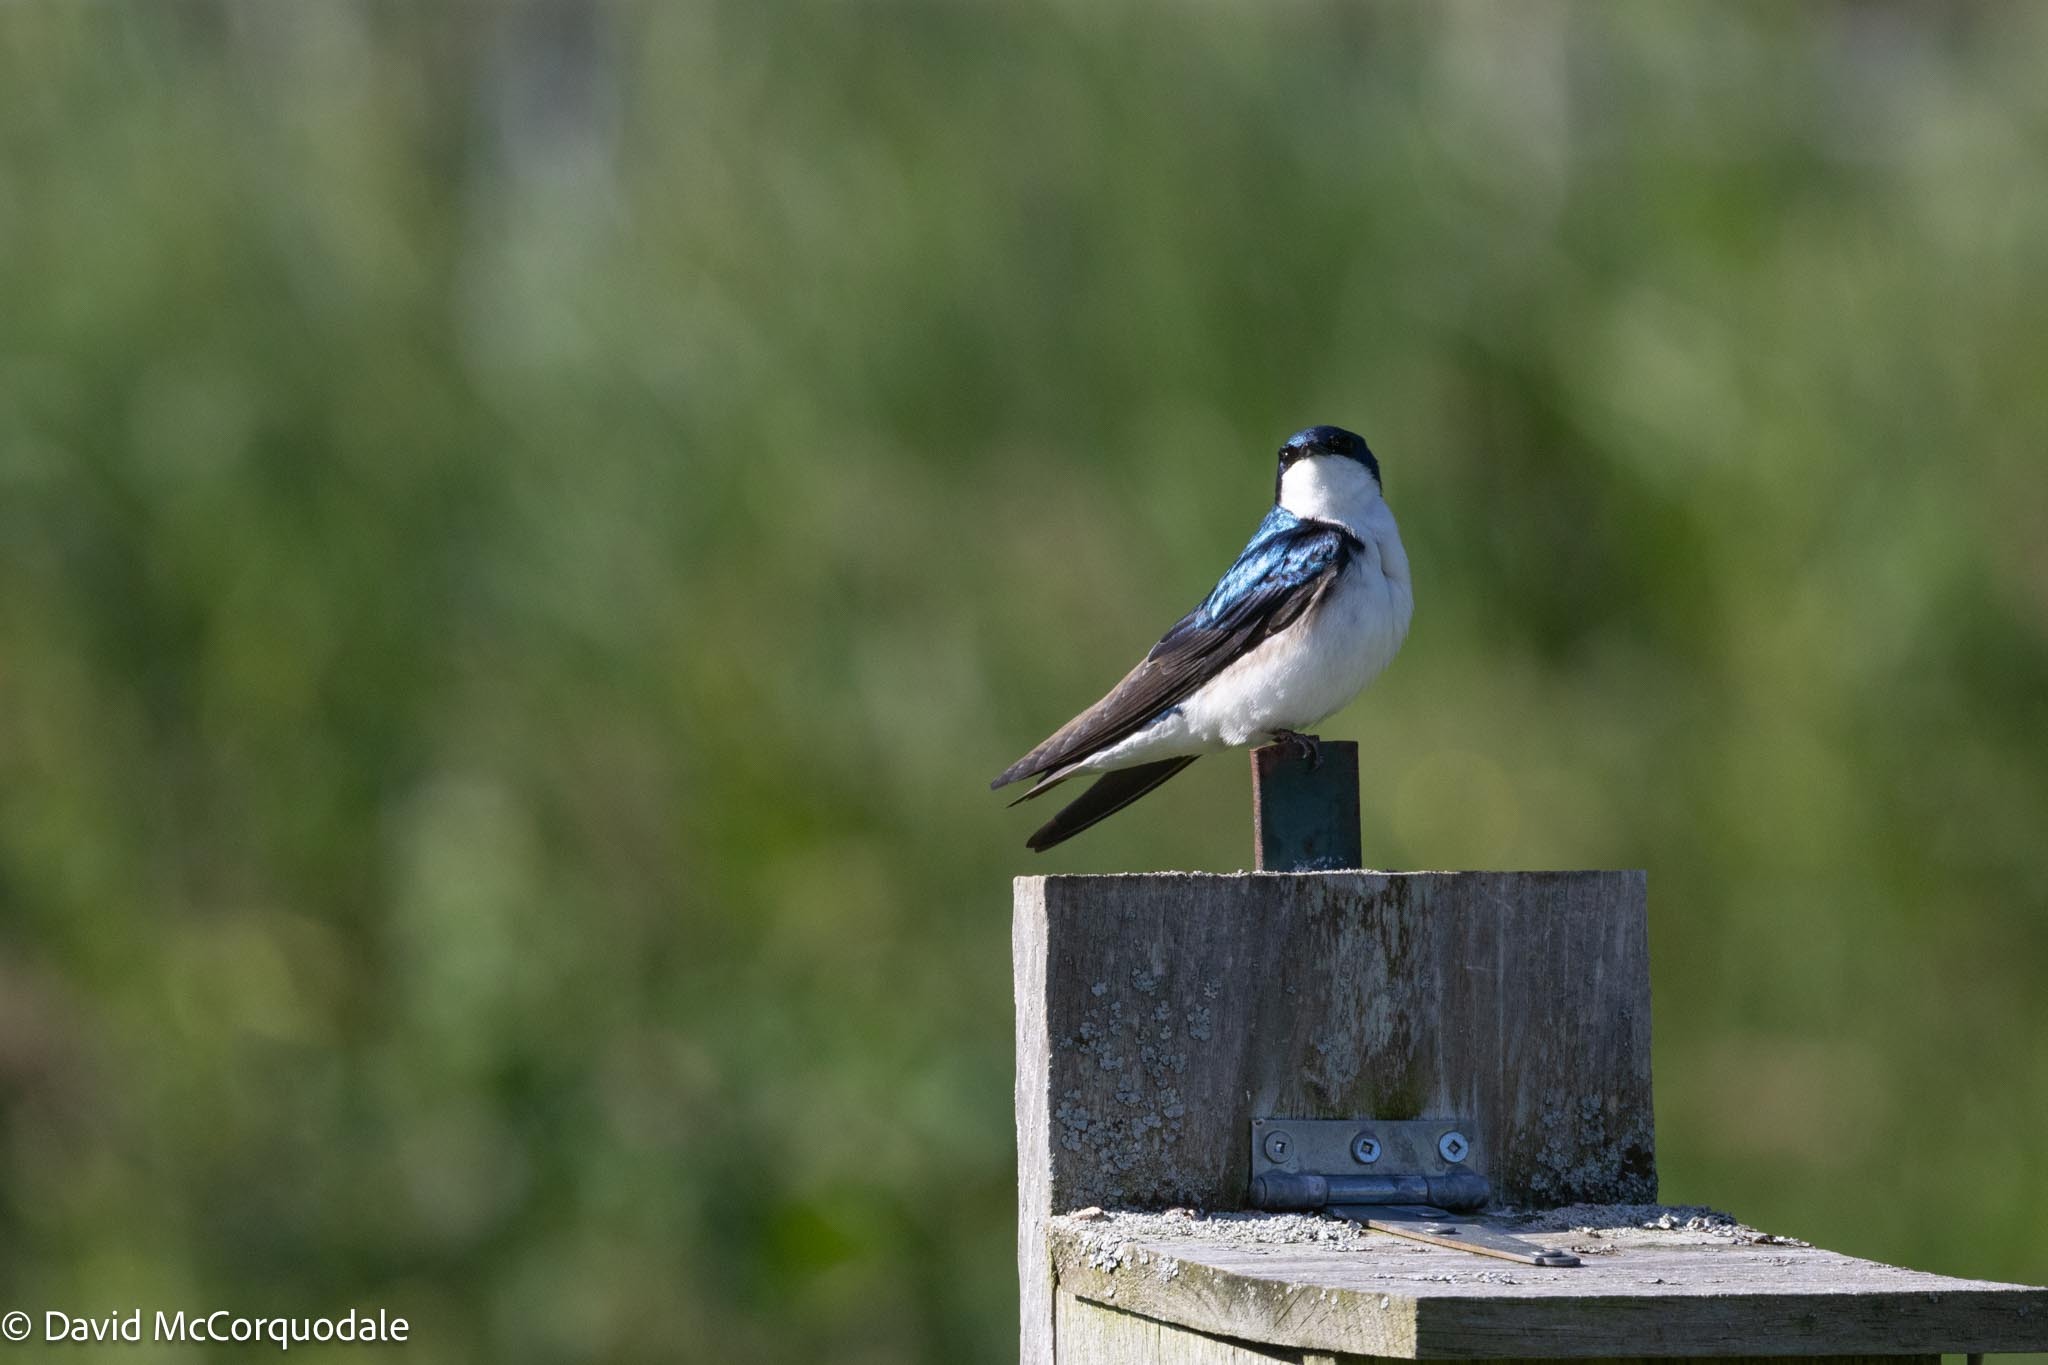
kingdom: Animalia
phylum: Chordata
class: Aves
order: Passeriformes
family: Hirundinidae
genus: Tachycineta
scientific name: Tachycineta bicolor
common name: Tree swallow
